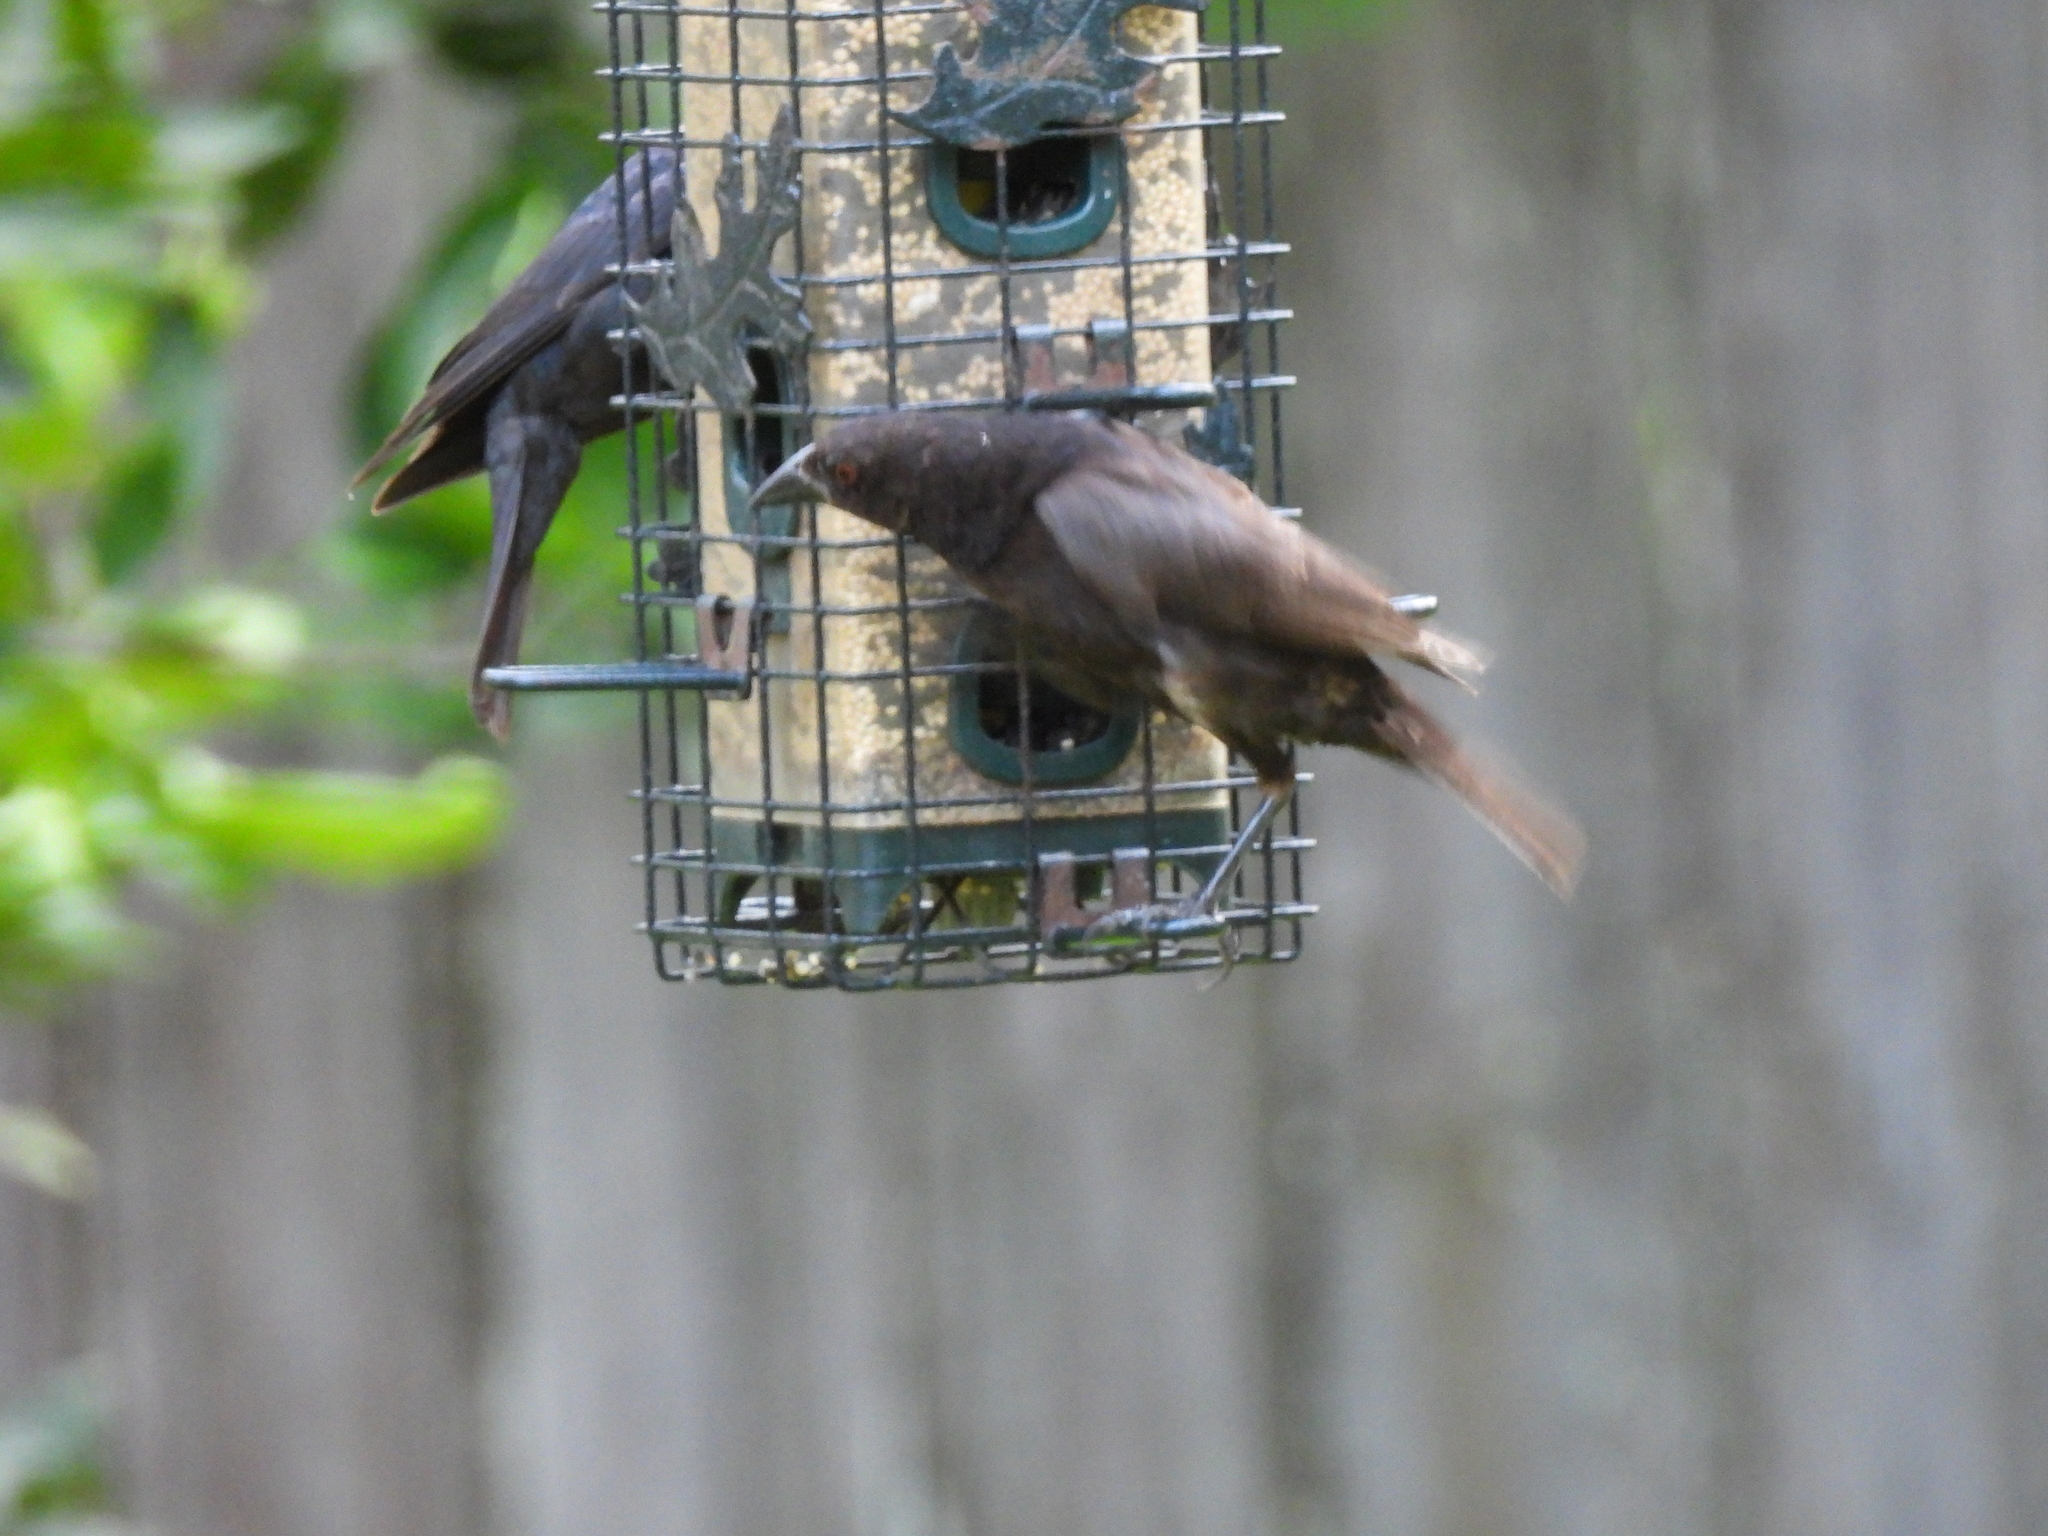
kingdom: Animalia
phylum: Chordata
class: Aves
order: Passeriformes
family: Icteridae
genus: Molothrus
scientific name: Molothrus aeneus
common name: Bronzed cowbird
